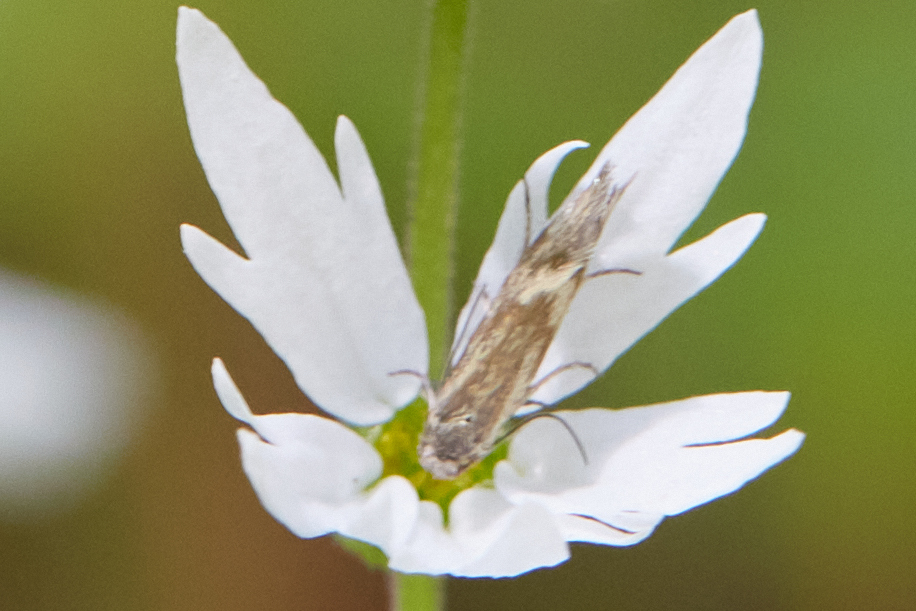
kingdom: Animalia
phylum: Arthropoda
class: Insecta
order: Lepidoptera
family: Prodoxidae
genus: Greya
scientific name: Greya obscura
